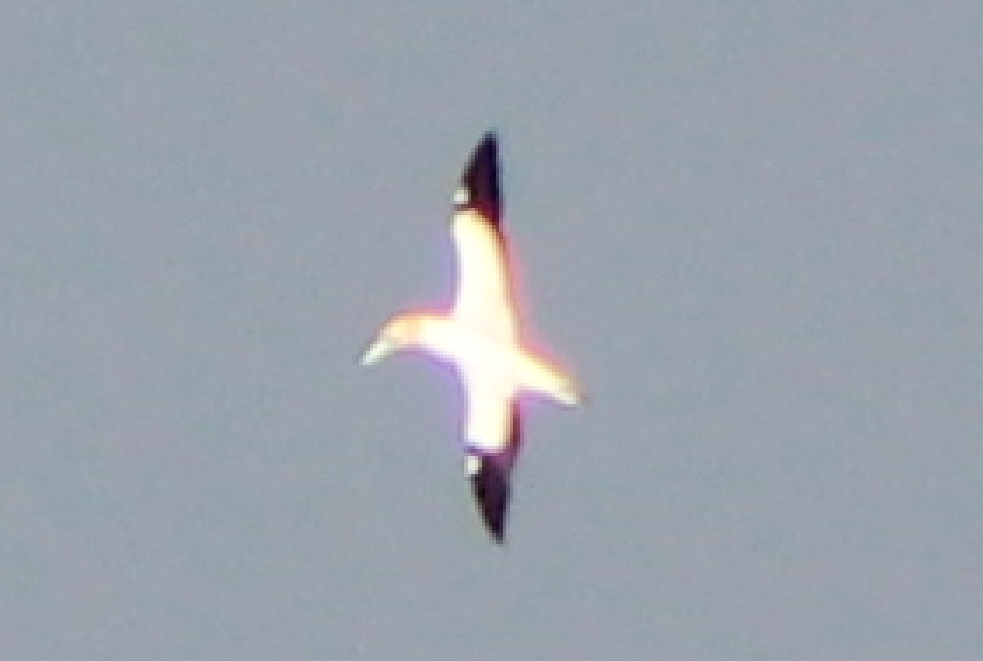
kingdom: Animalia
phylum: Chordata
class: Aves
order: Suliformes
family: Sulidae
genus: Morus
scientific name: Morus serrator
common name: Australasian gannet
